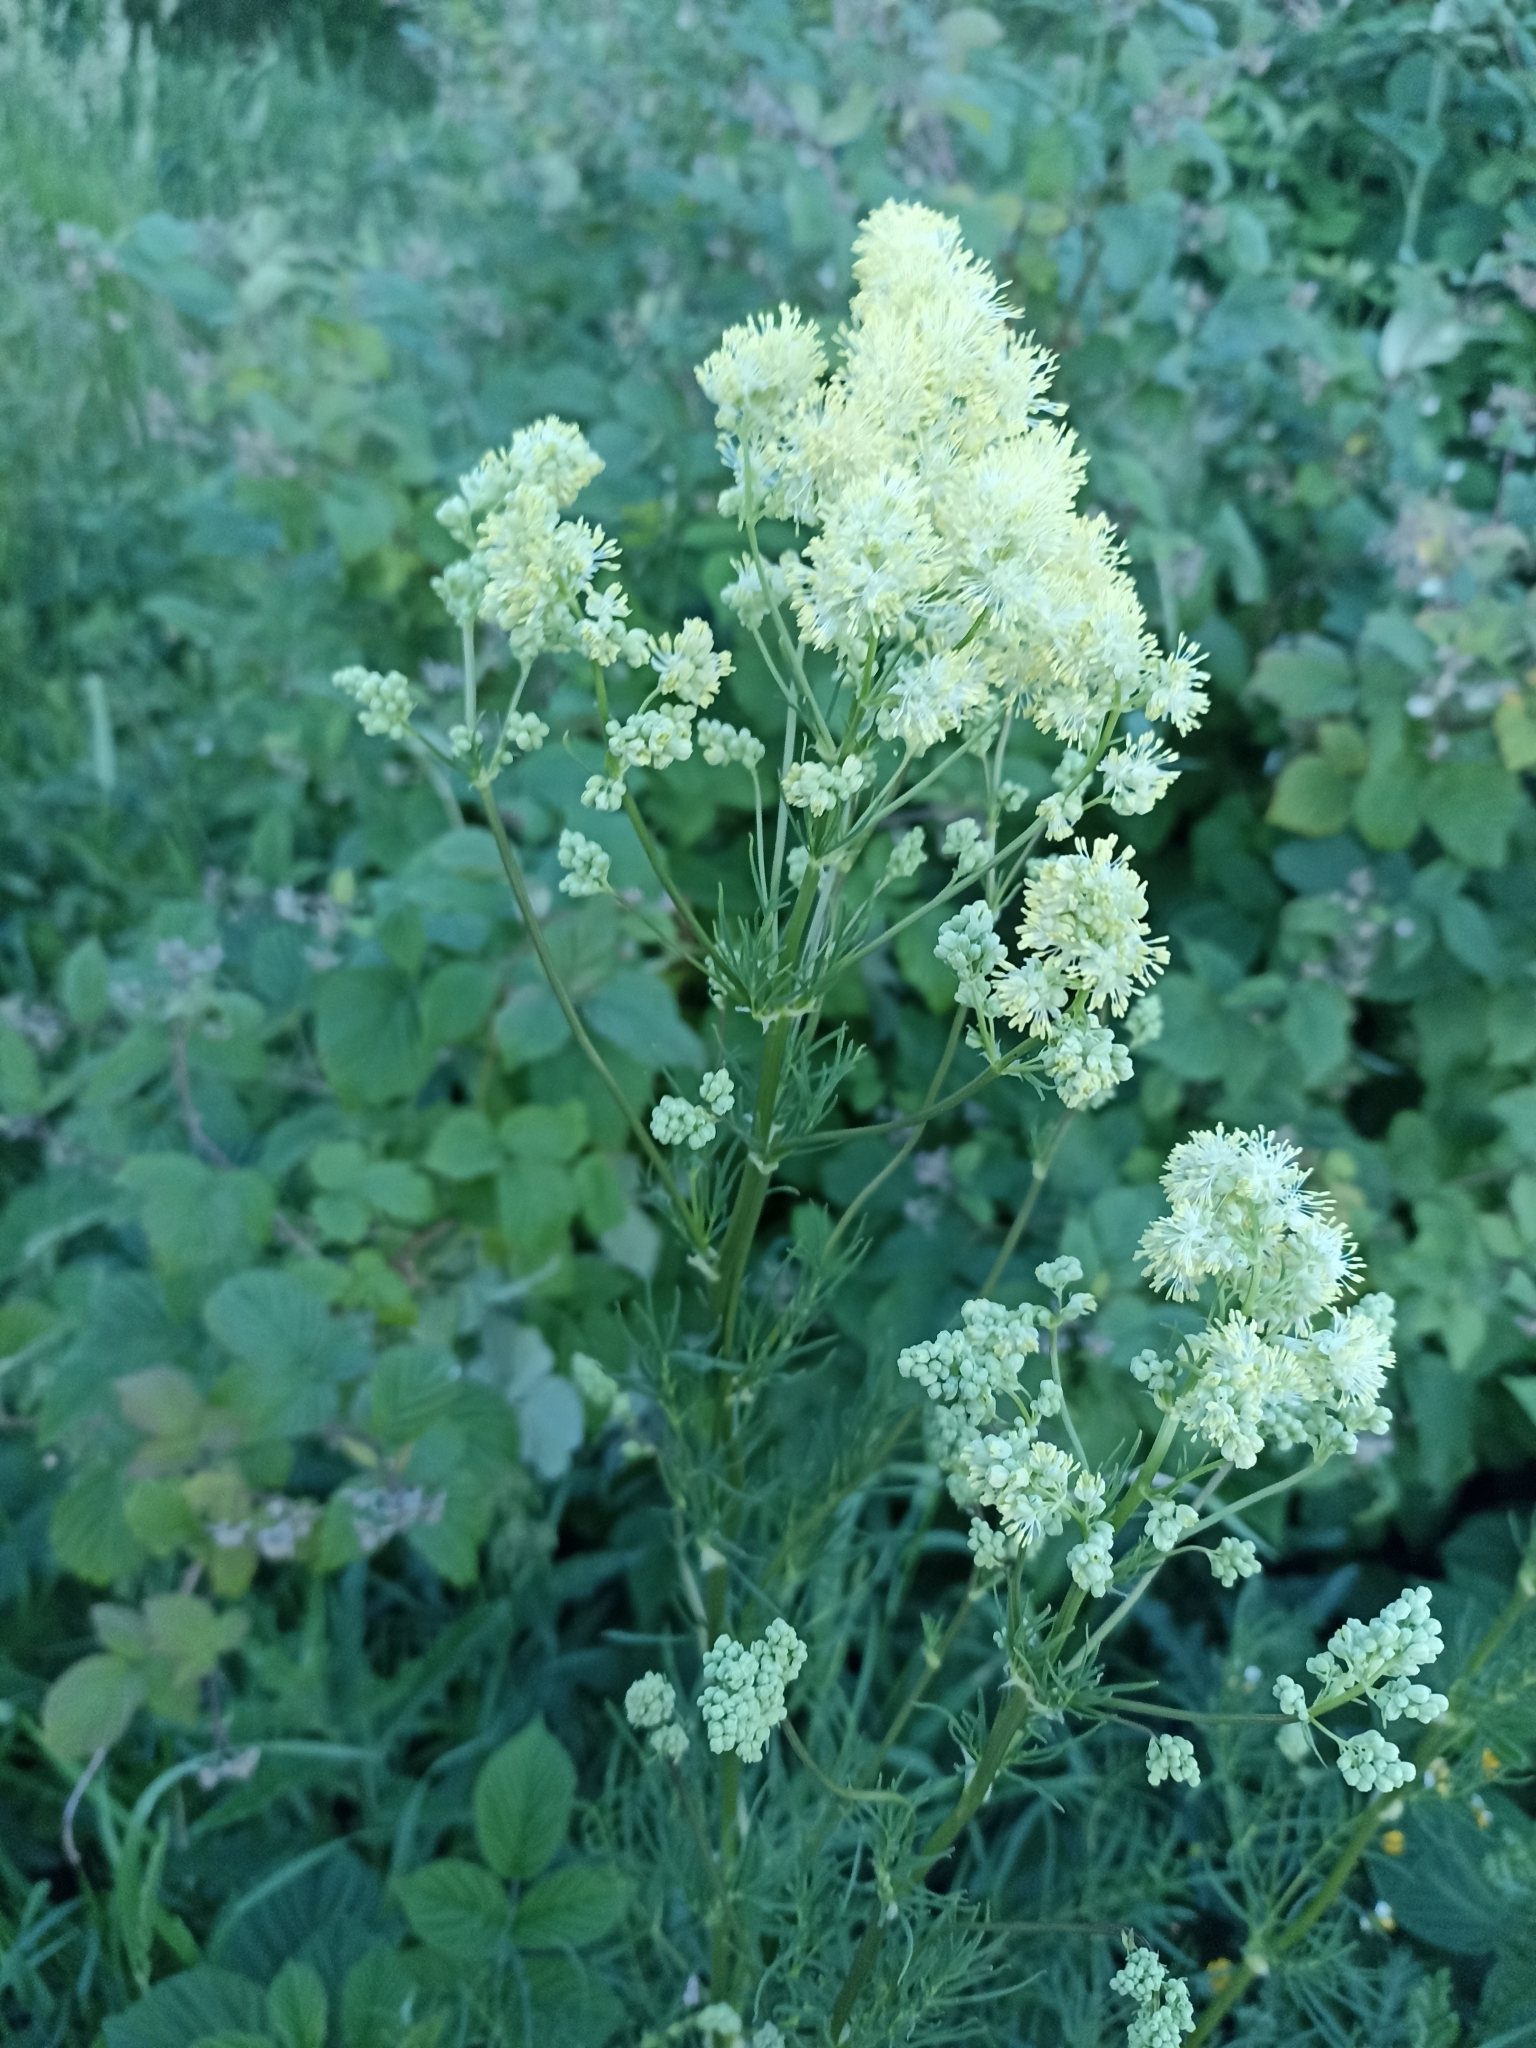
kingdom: Plantae
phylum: Tracheophyta
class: Magnoliopsida
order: Ranunculales
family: Ranunculaceae
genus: Thalictrum
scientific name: Thalictrum lucidum
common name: Shining meadow-rue
